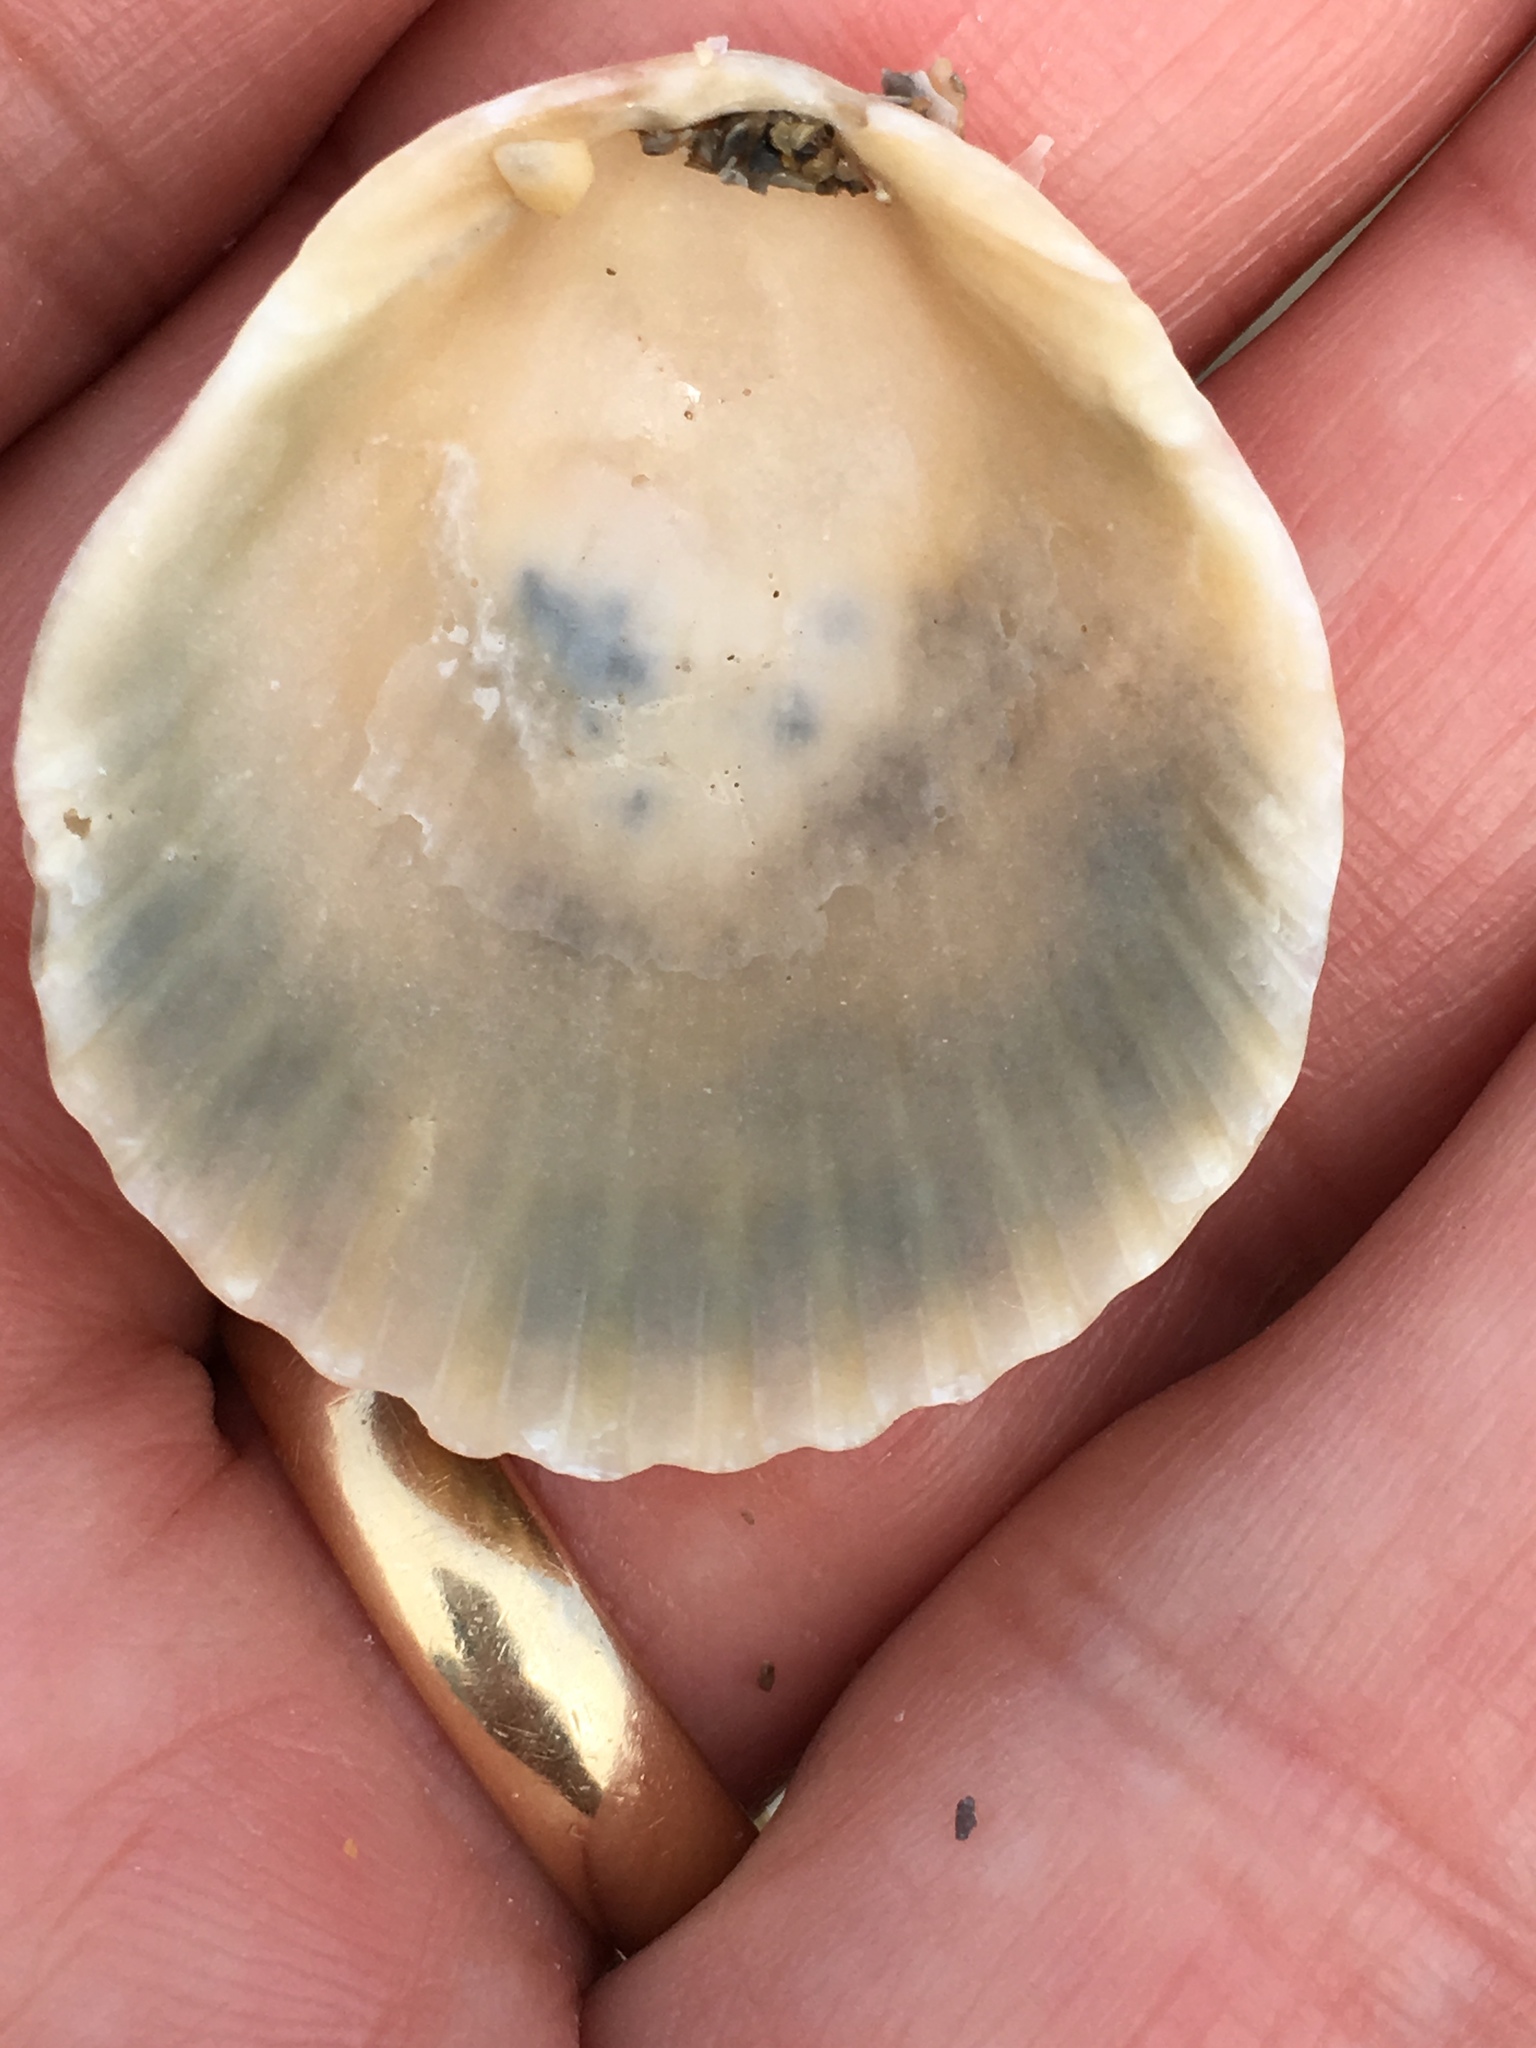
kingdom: Animalia
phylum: Mollusca
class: Bivalvia
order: Pectinida
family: Pectinidae
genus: Argopecten
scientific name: Argopecten gibbus
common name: Atlantic calico scallop
